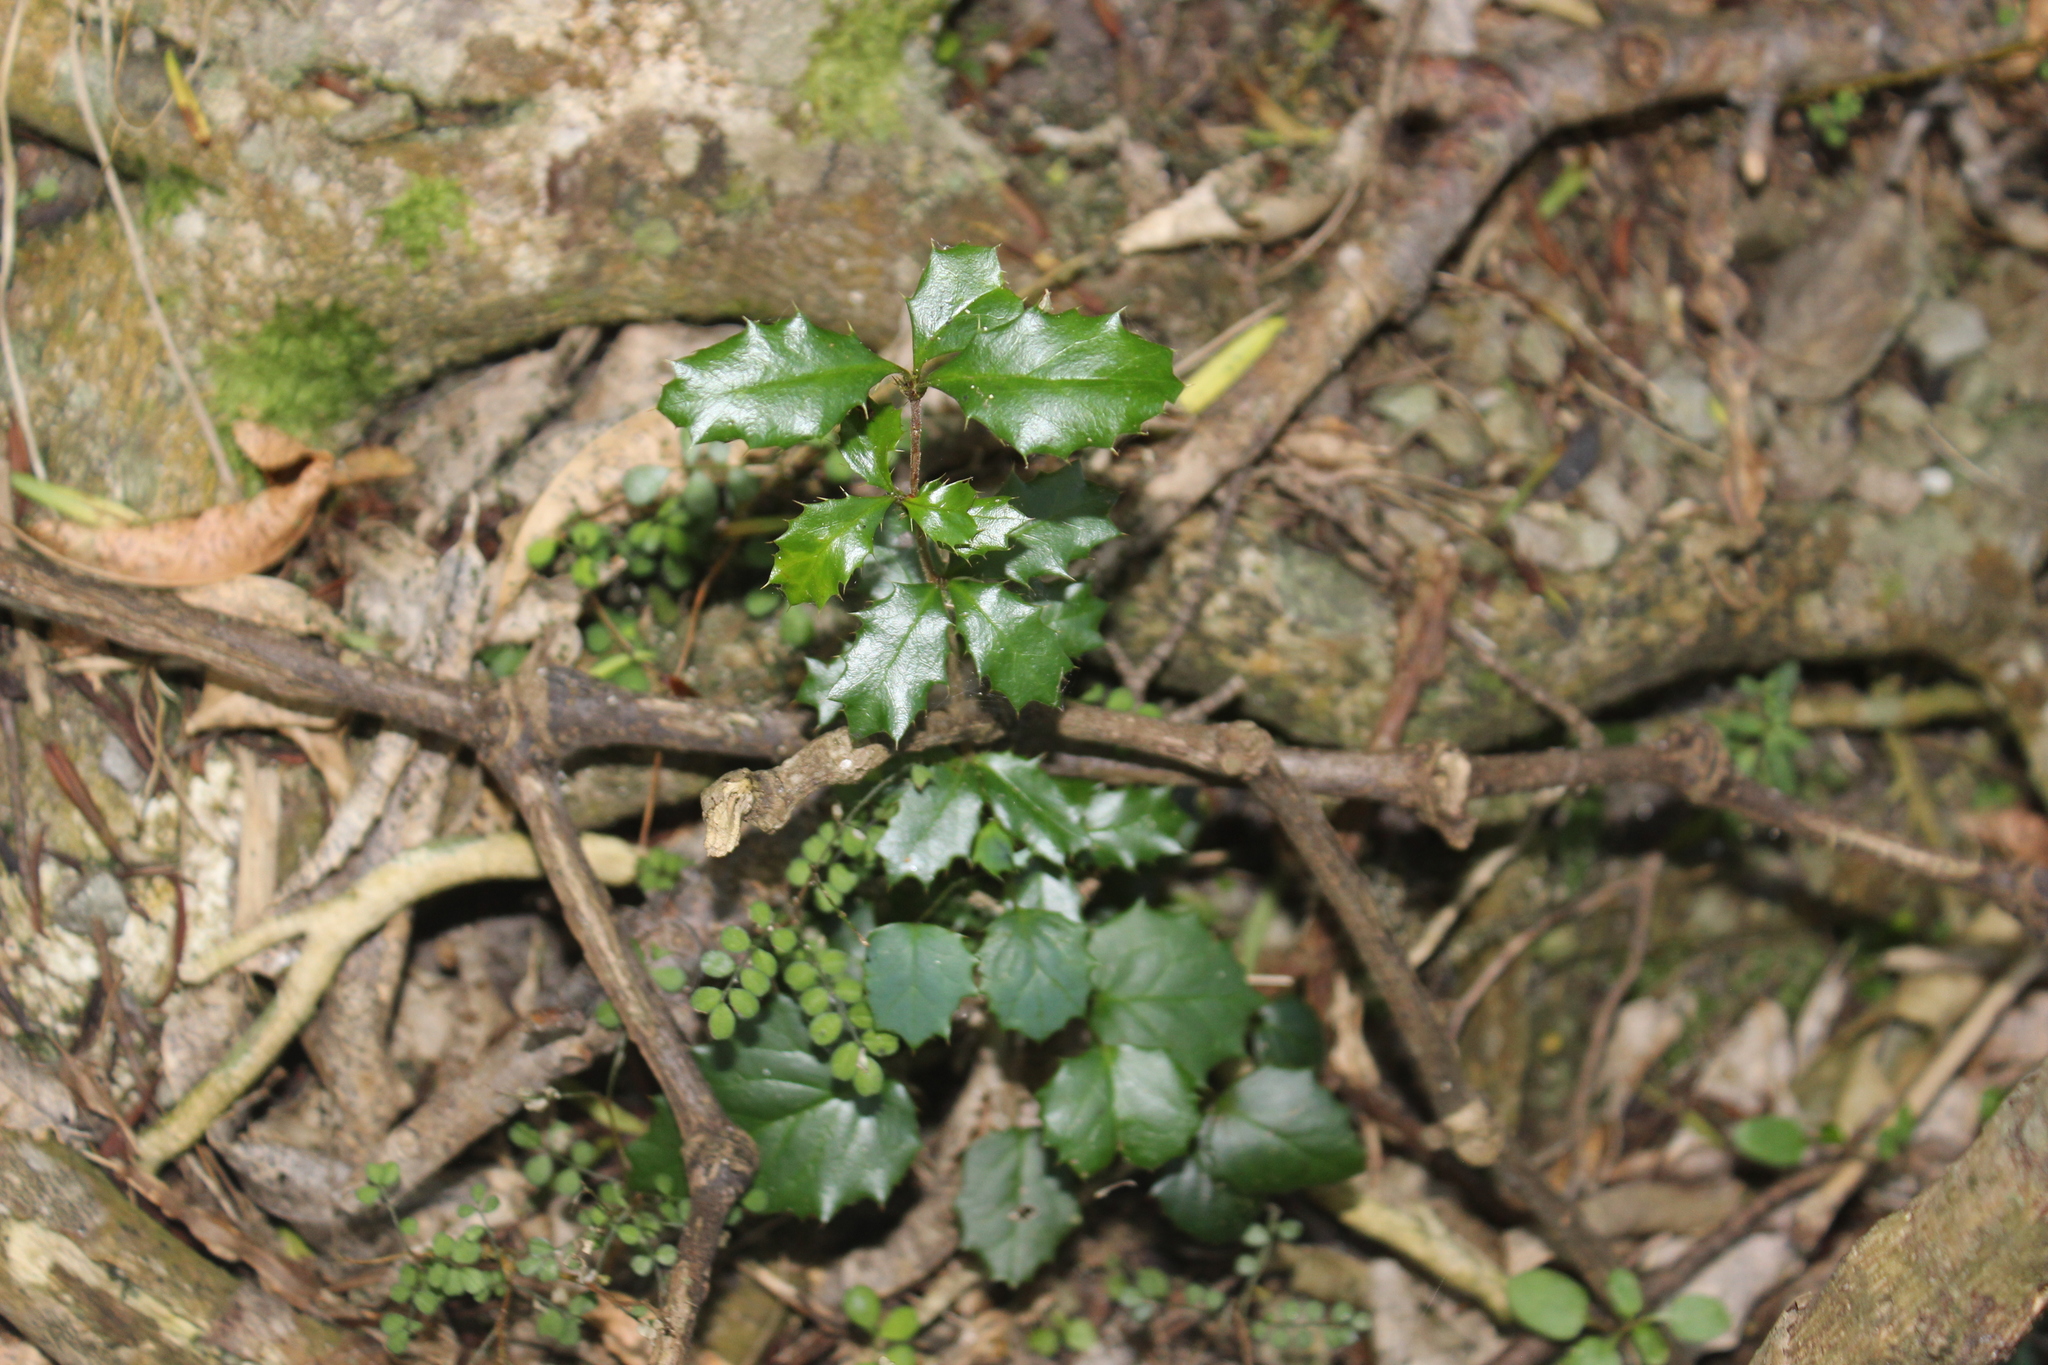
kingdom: Plantae
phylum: Tracheophyta
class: Magnoliopsida
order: Ranunculales
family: Berberidaceae
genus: Berberis
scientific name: Berberis darwinii
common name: Darwin's barberry
